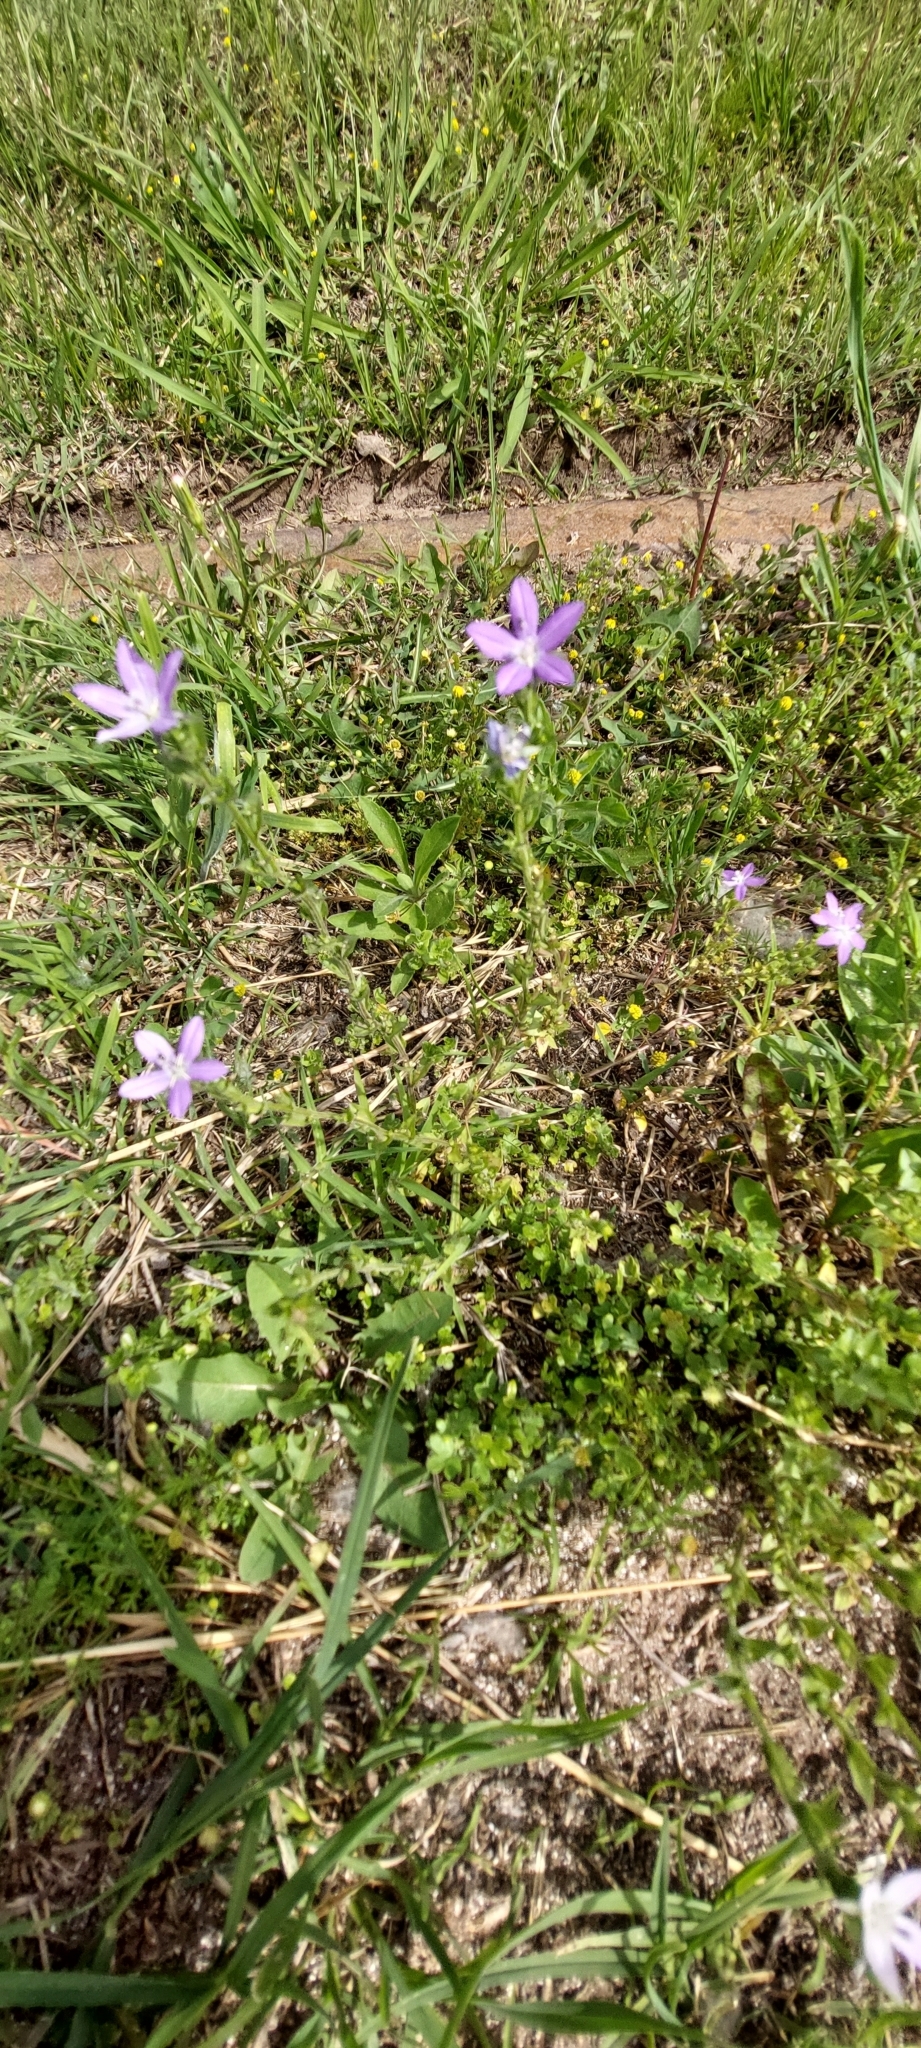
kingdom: Plantae
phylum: Tracheophyta
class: Magnoliopsida
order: Asterales
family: Campanulaceae
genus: Triodanis
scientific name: Triodanis biflora
